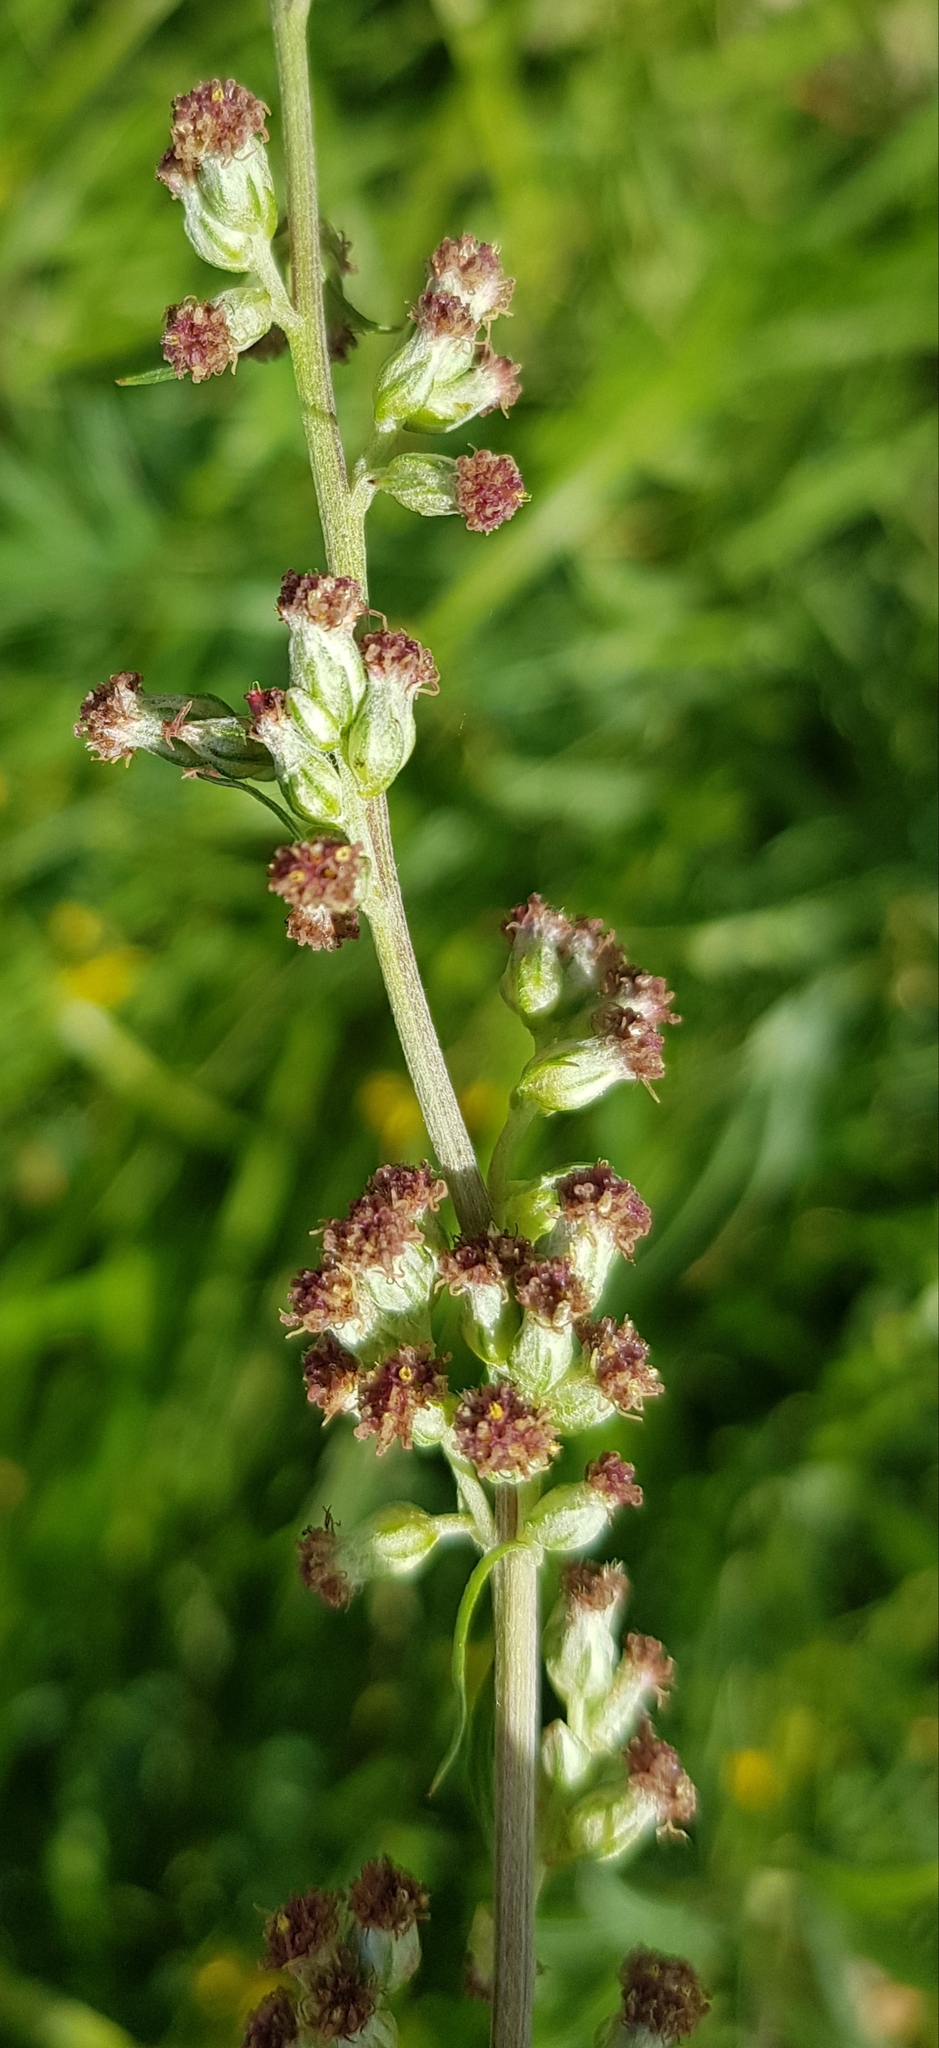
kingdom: Plantae
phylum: Tracheophyta
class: Magnoliopsida
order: Asterales
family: Asteraceae
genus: Artemisia
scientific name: Artemisia tanacetifolia
